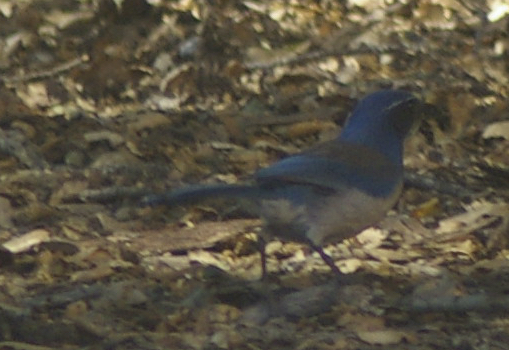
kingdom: Animalia
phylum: Chordata
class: Aves
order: Passeriformes
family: Corvidae
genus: Aphelocoma
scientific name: Aphelocoma californica
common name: California scrub-jay
